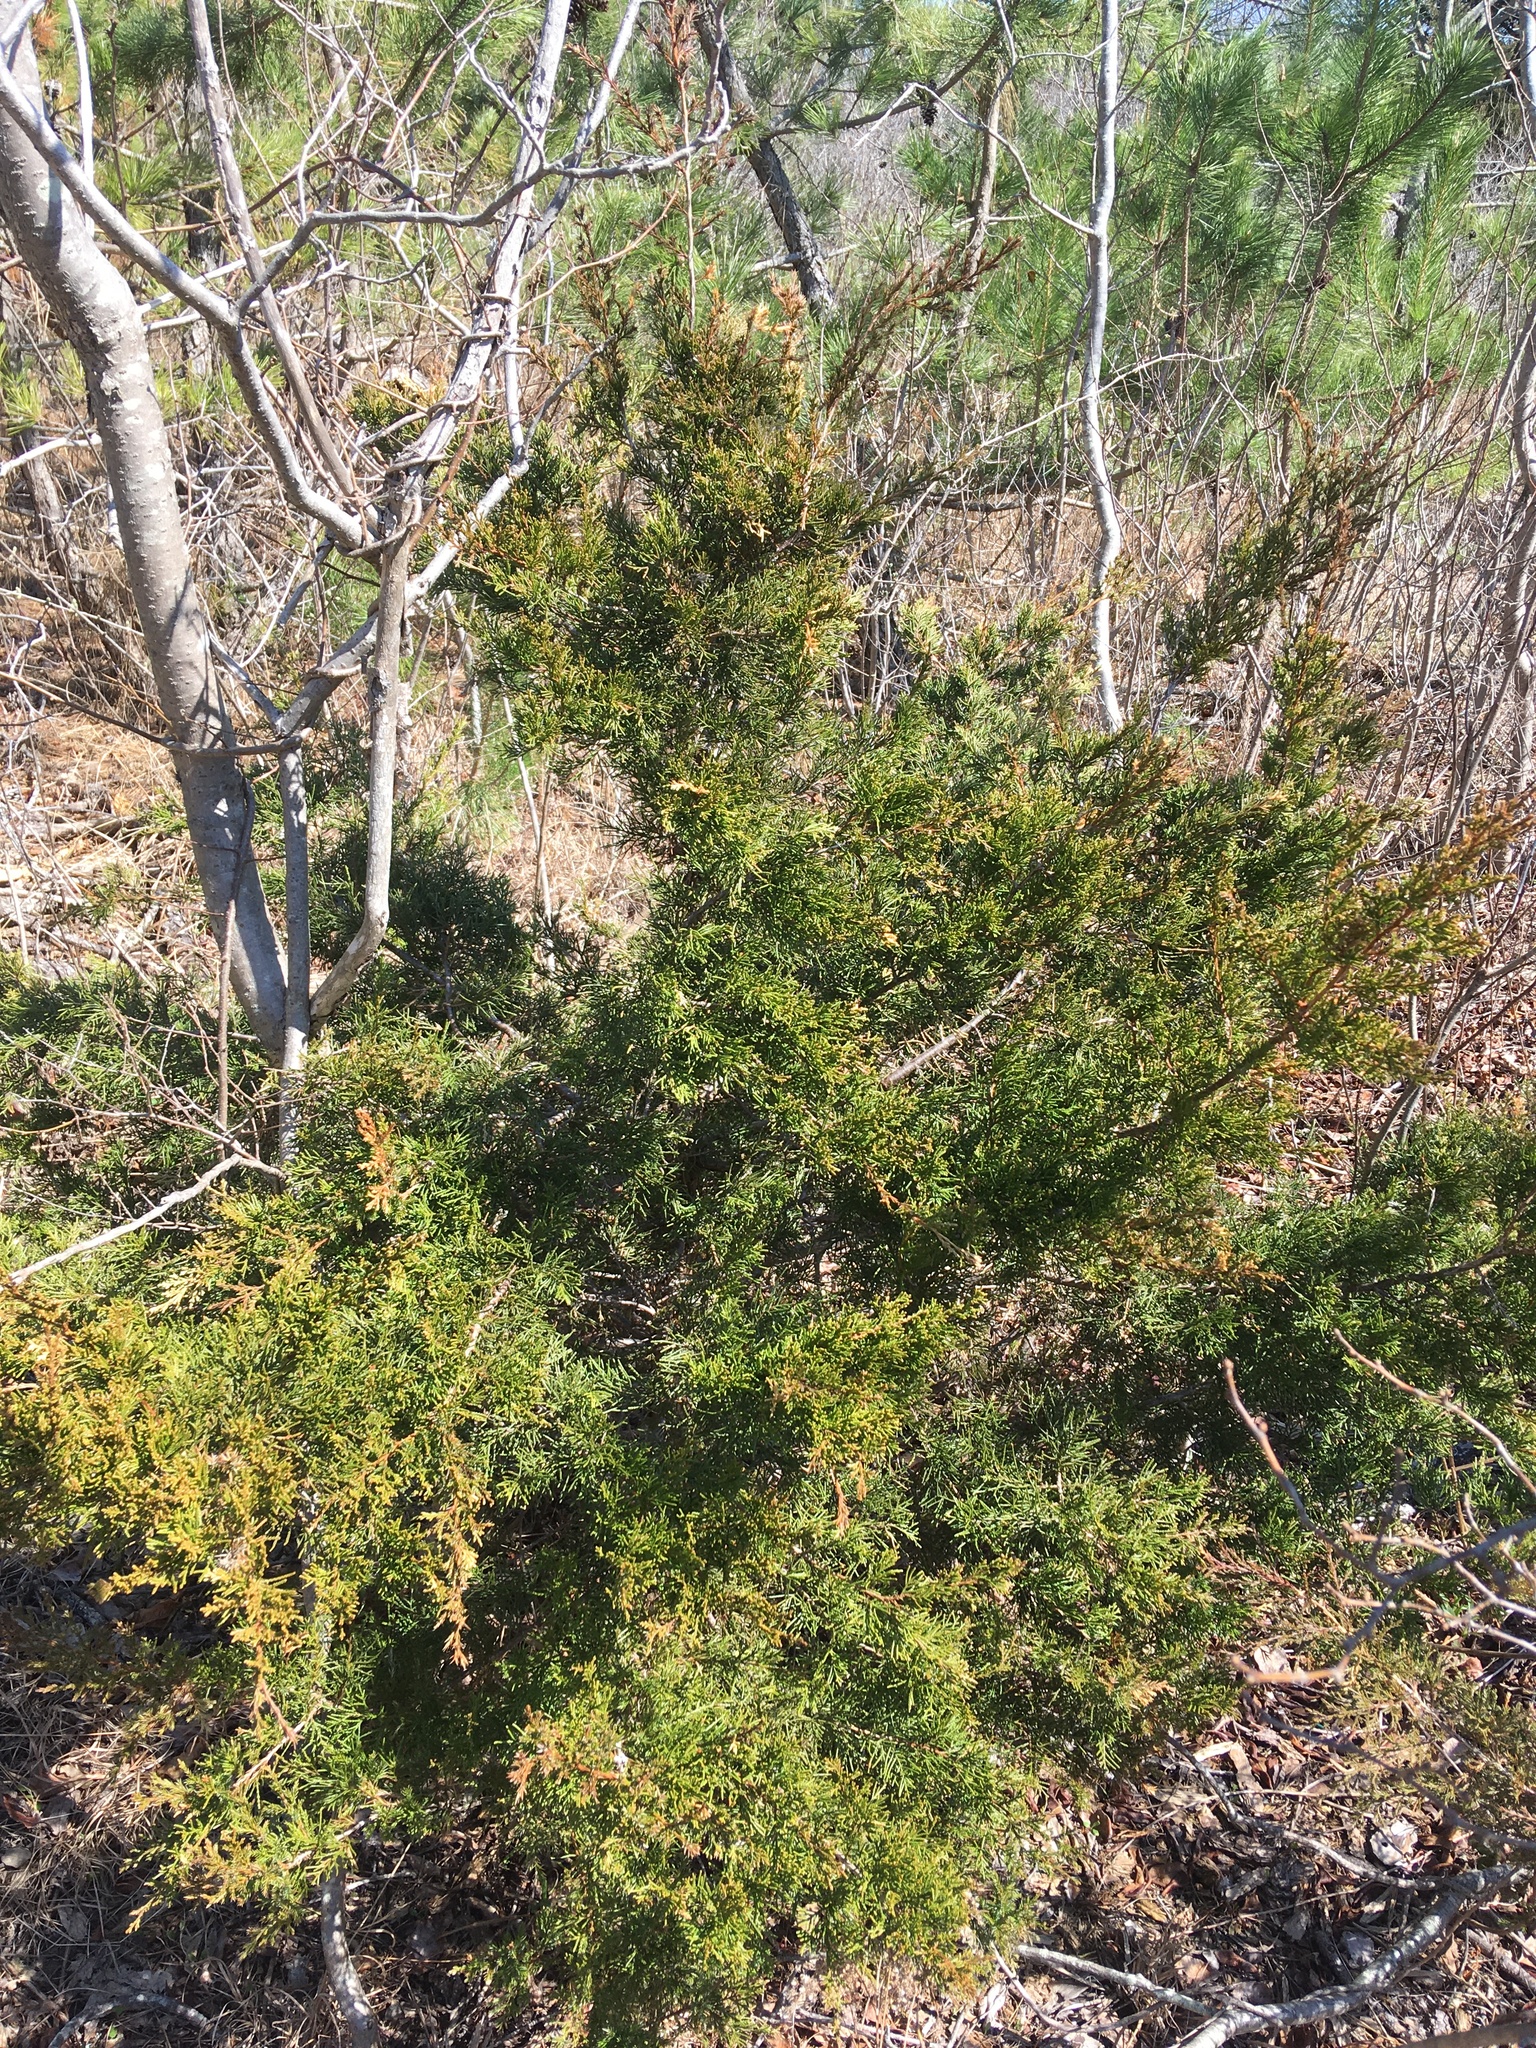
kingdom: Plantae
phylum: Tracheophyta
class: Pinopsida
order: Pinales
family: Cupressaceae
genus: Juniperus
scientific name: Juniperus virginiana
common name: Red juniper
